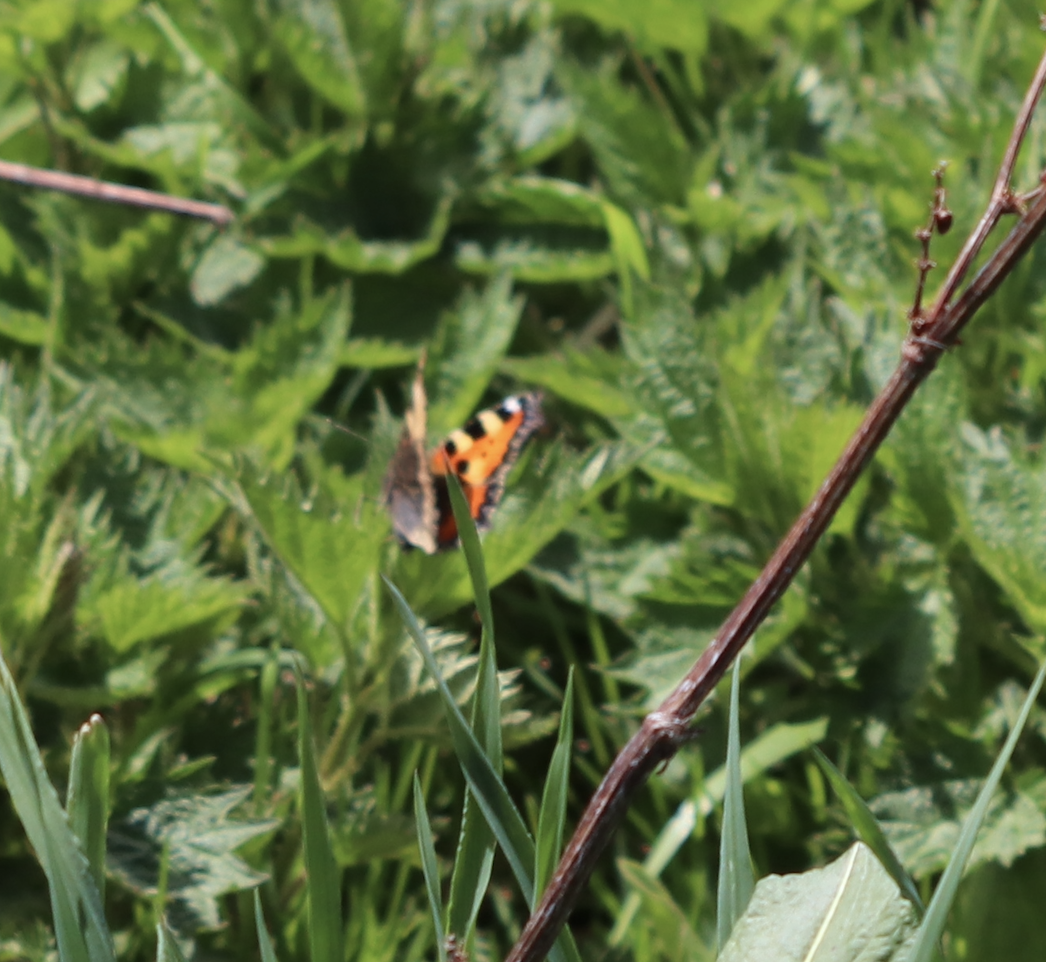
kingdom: Animalia
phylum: Arthropoda
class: Insecta
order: Lepidoptera
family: Nymphalidae
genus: Aglais
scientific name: Aglais urticae
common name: Small tortoiseshell
